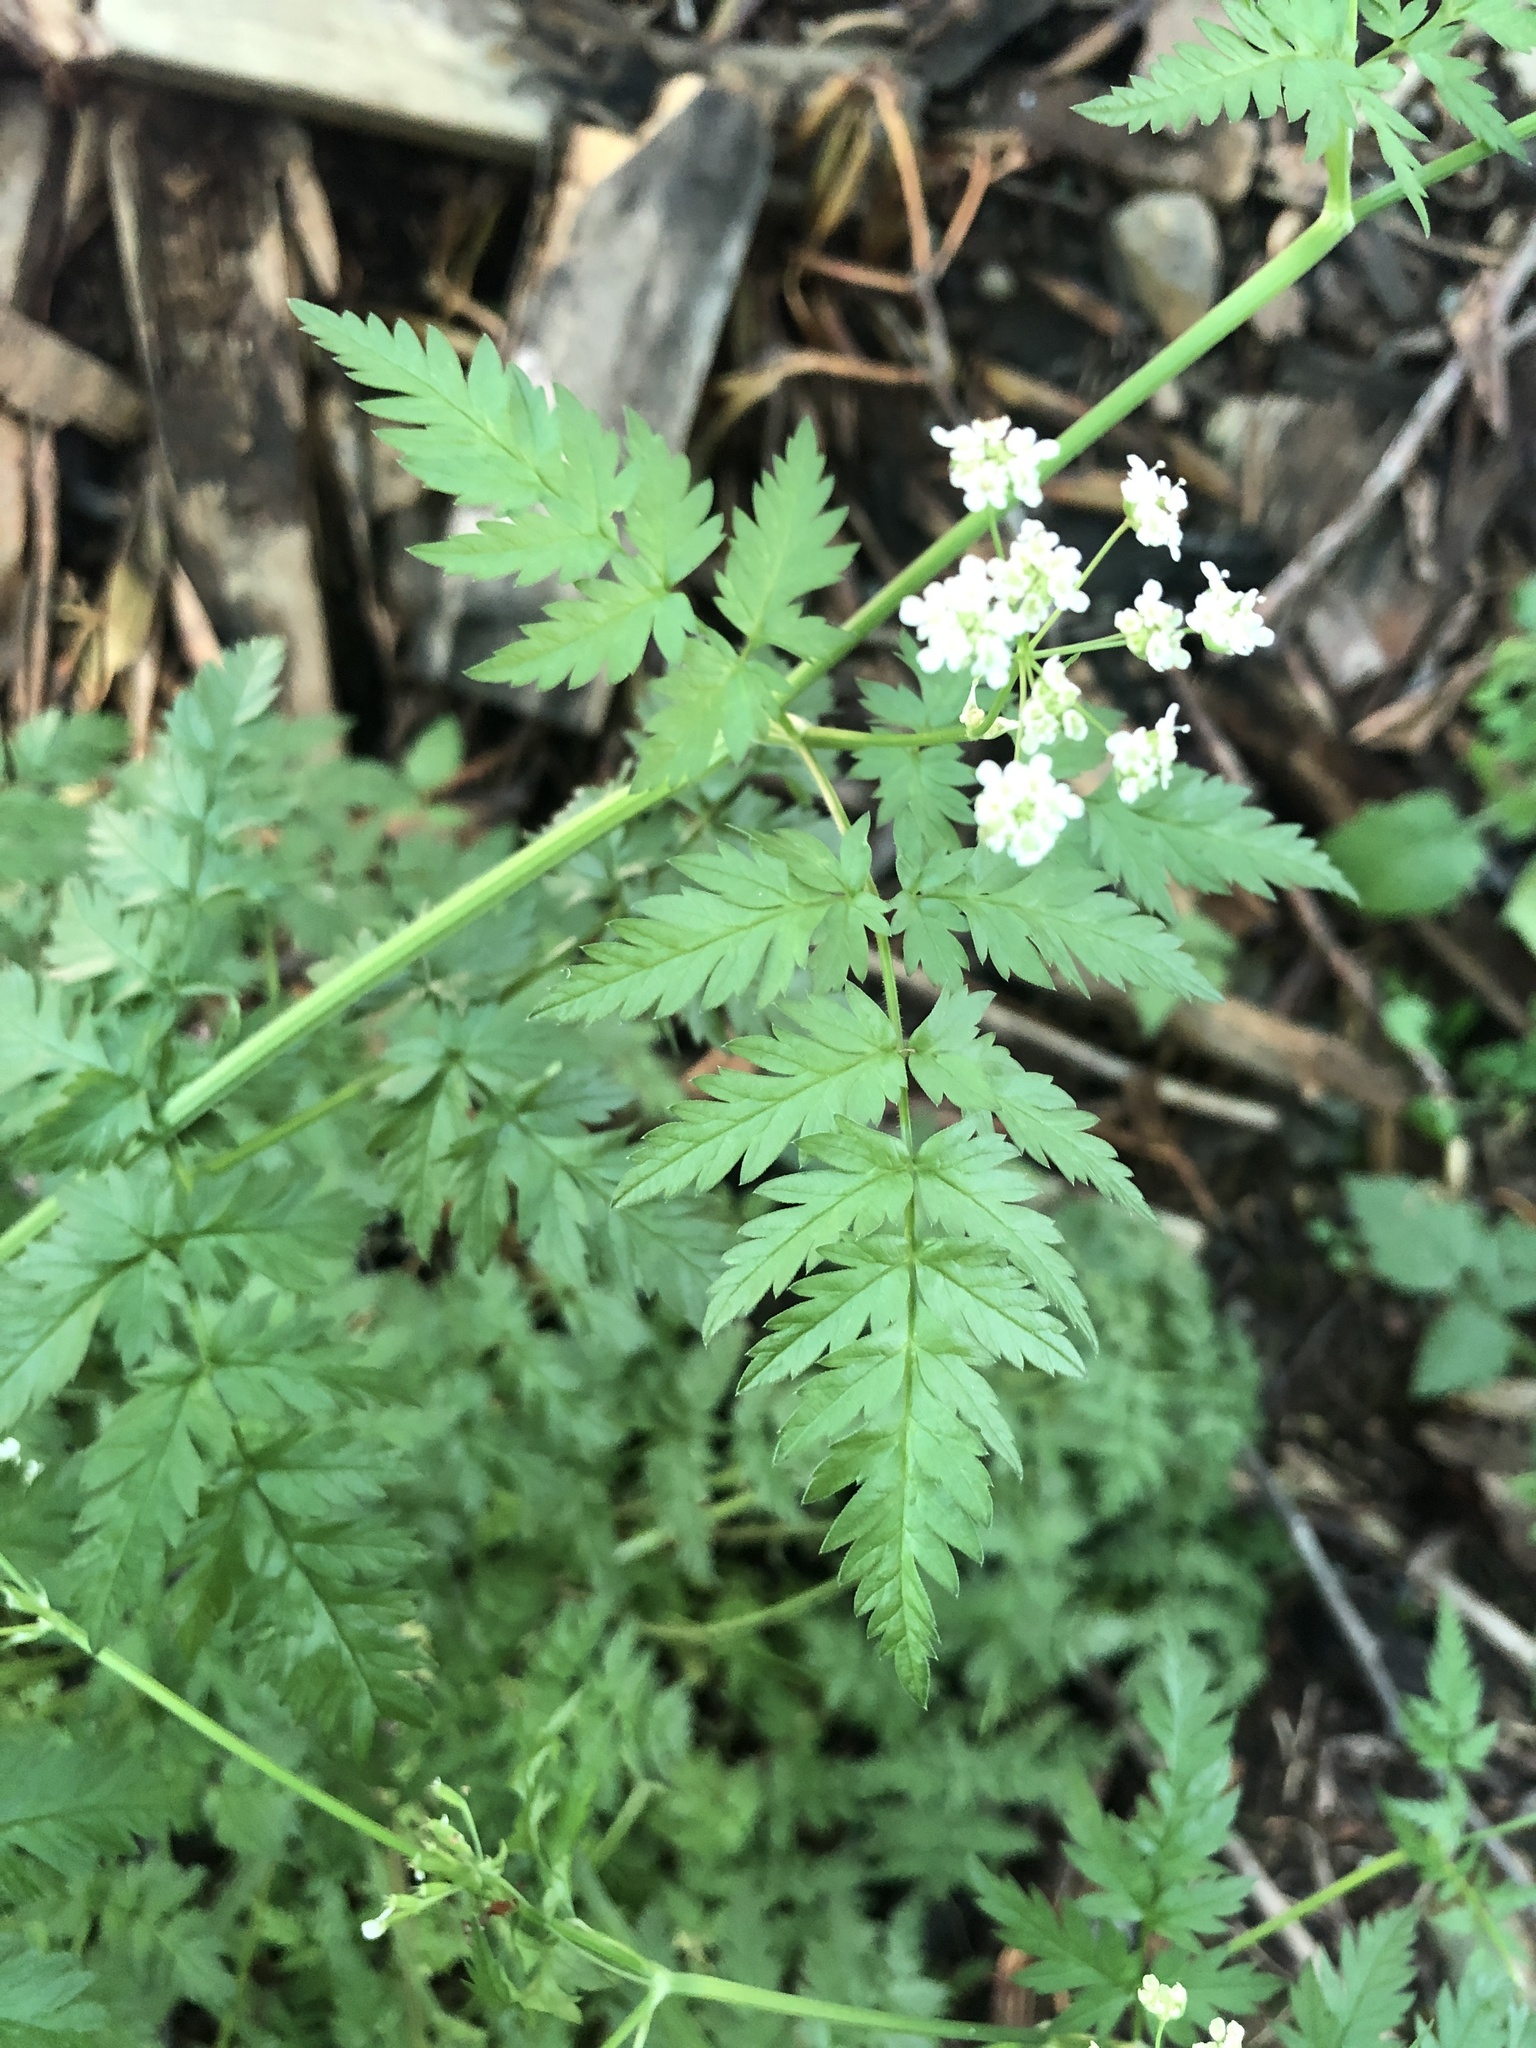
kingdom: Plantae
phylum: Tracheophyta
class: Magnoliopsida
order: Apiales
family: Apiaceae
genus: Anthriscus
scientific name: Anthriscus sylvestris
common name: Cow parsley
